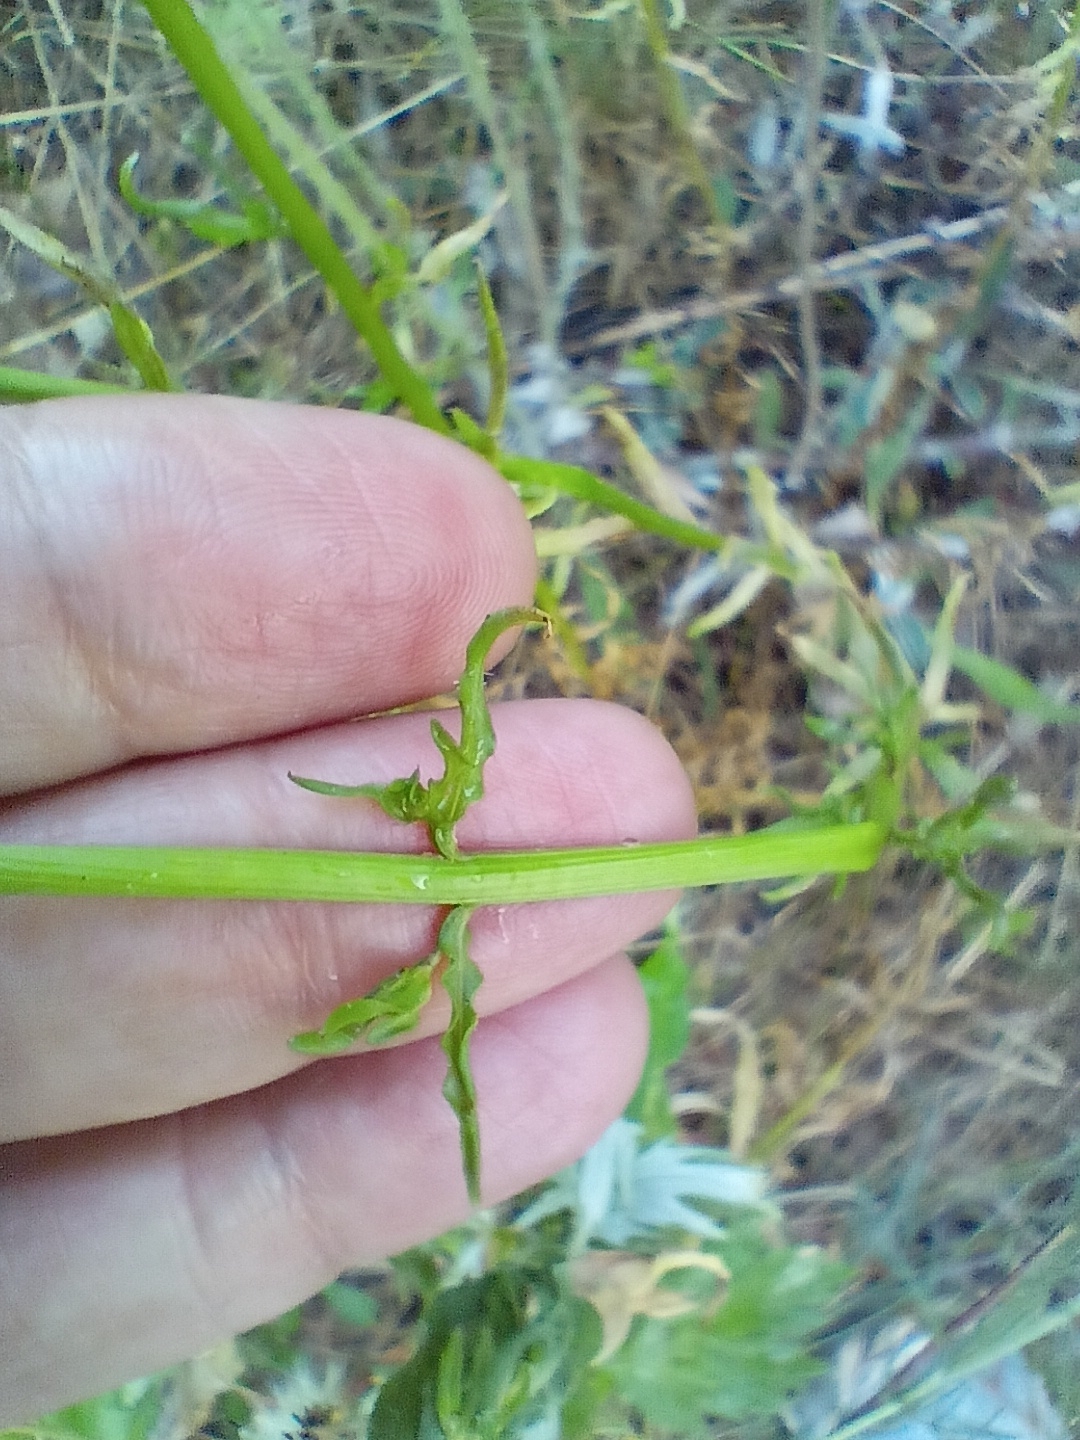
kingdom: Plantae
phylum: Tracheophyta
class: Magnoliopsida
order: Asterales
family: Campanulaceae
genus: Jasione
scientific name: Jasione montana
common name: Sheep's-bit
